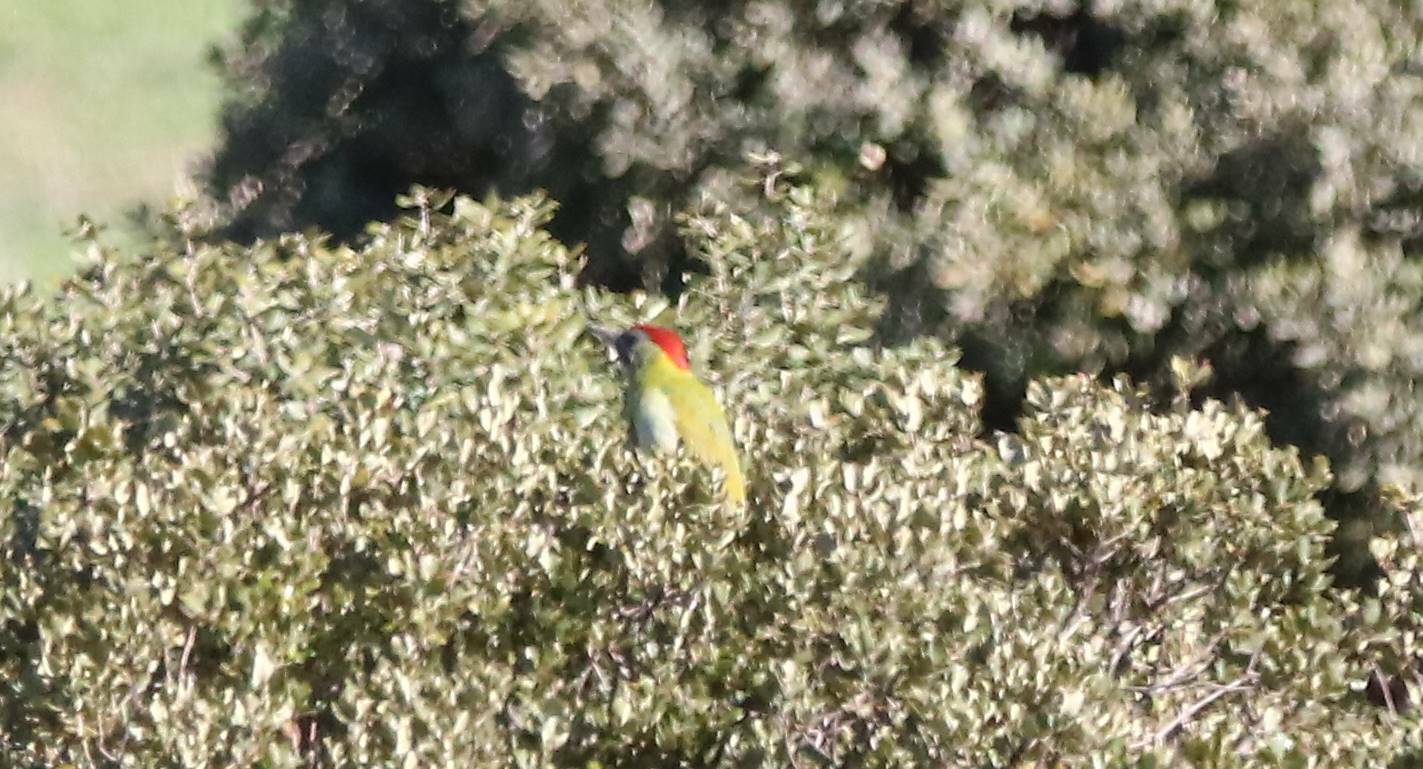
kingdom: Animalia
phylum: Chordata
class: Aves
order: Piciformes
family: Picidae
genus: Picus
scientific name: Picus vaillantii
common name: Levaillant's woodpecker
